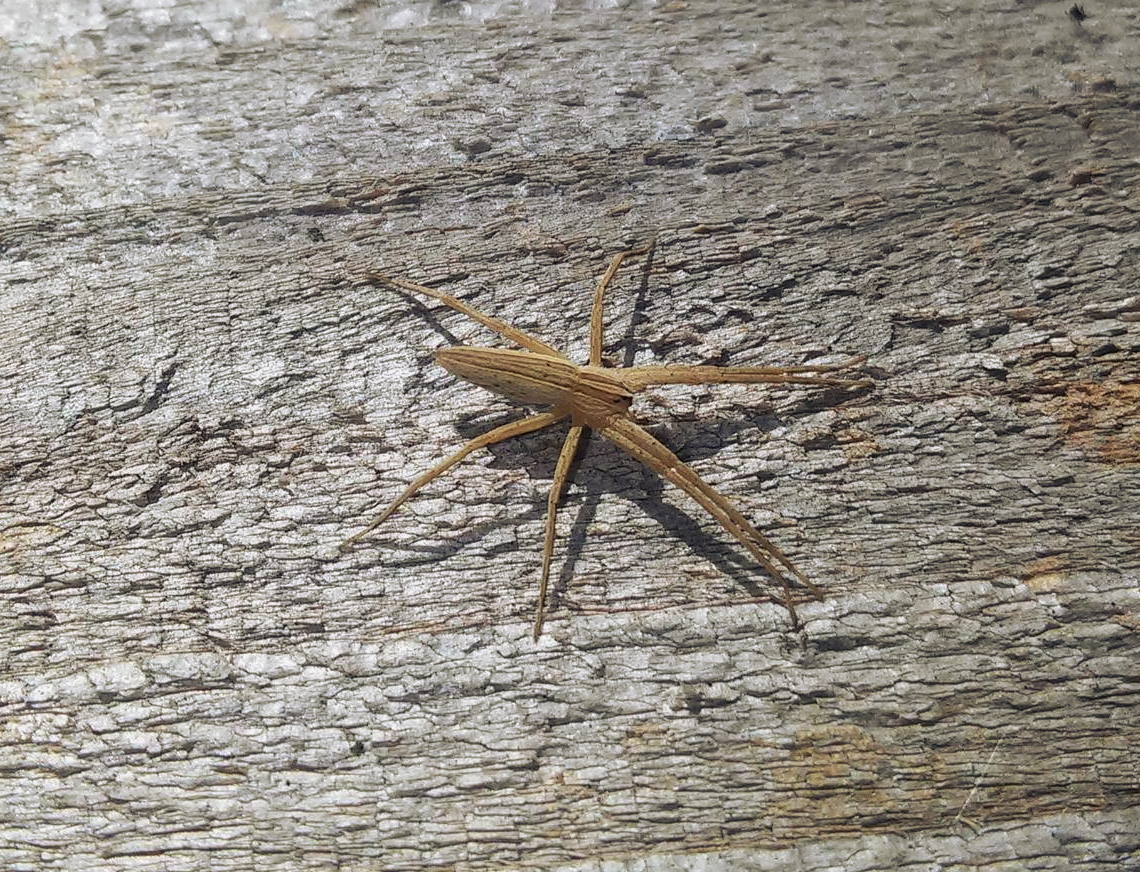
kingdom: Animalia
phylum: Arthropoda
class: Arachnida
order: Araneae
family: Pisauridae
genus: Pisaurina
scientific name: Pisaurina dubia
